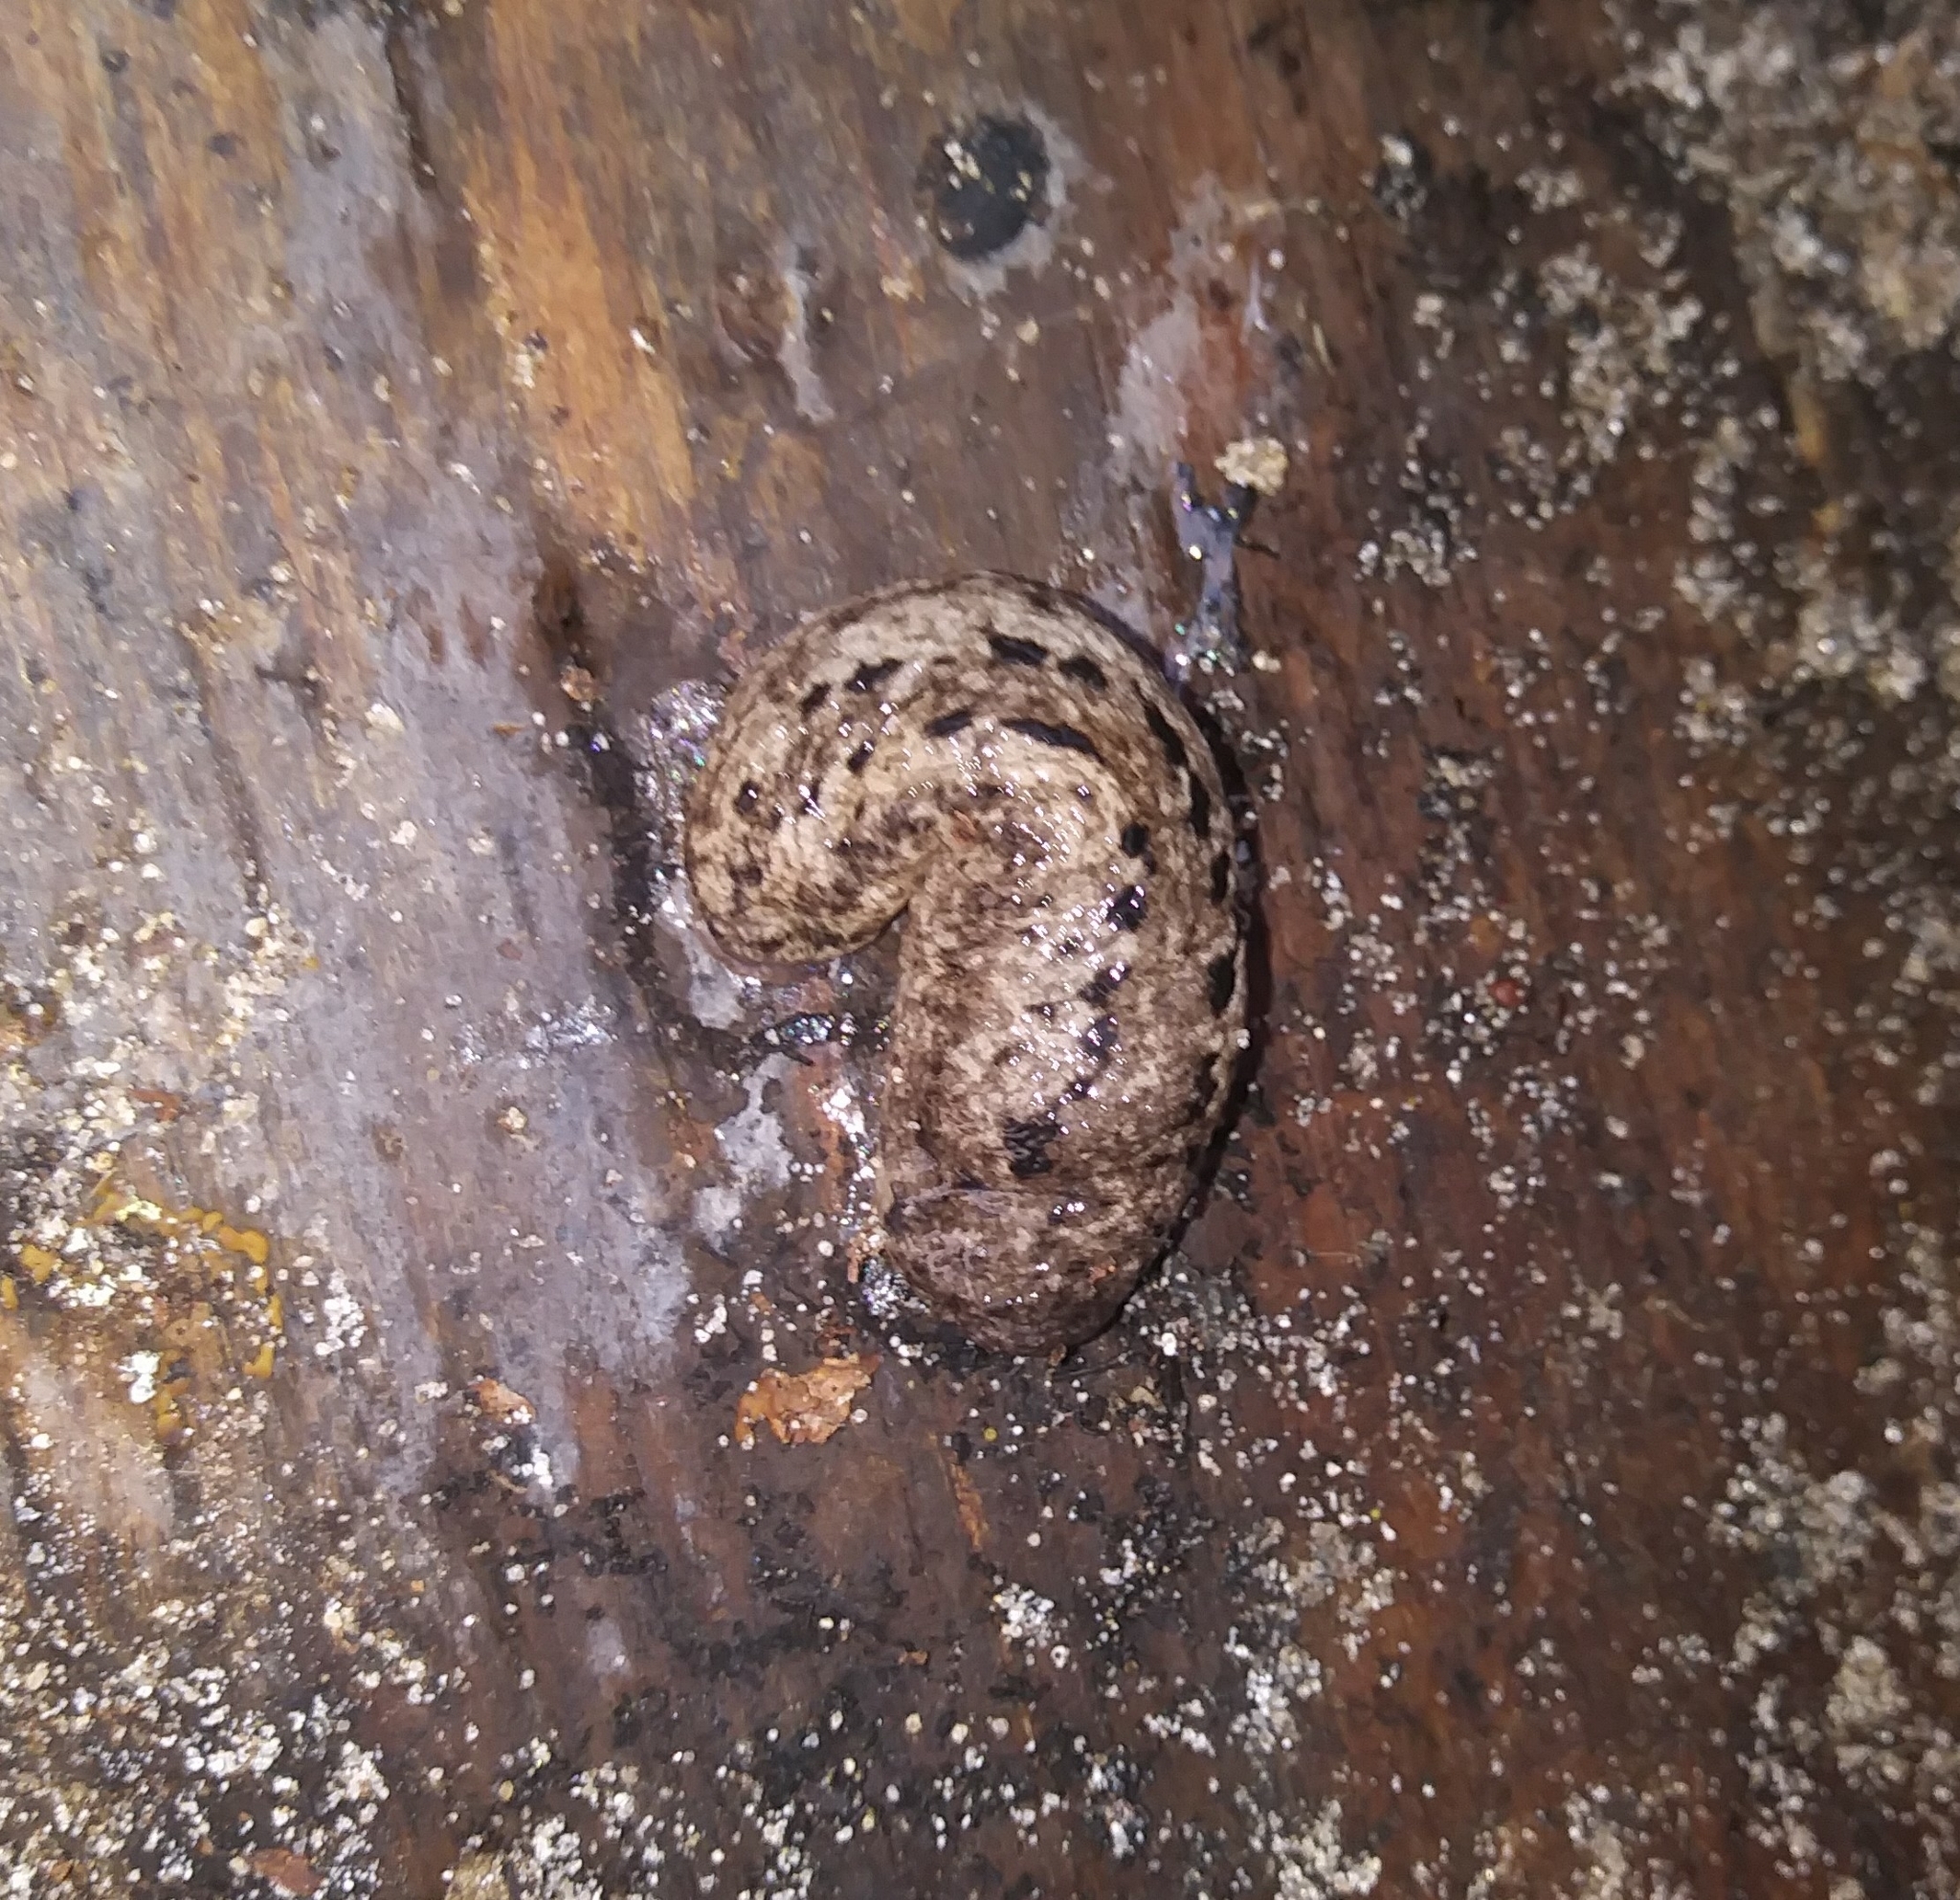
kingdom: Animalia
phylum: Mollusca
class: Gastropoda
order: Stylommatophora
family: Philomycidae
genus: Philomycus
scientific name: Philomycus carolinianus
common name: Carolina mantleslug
